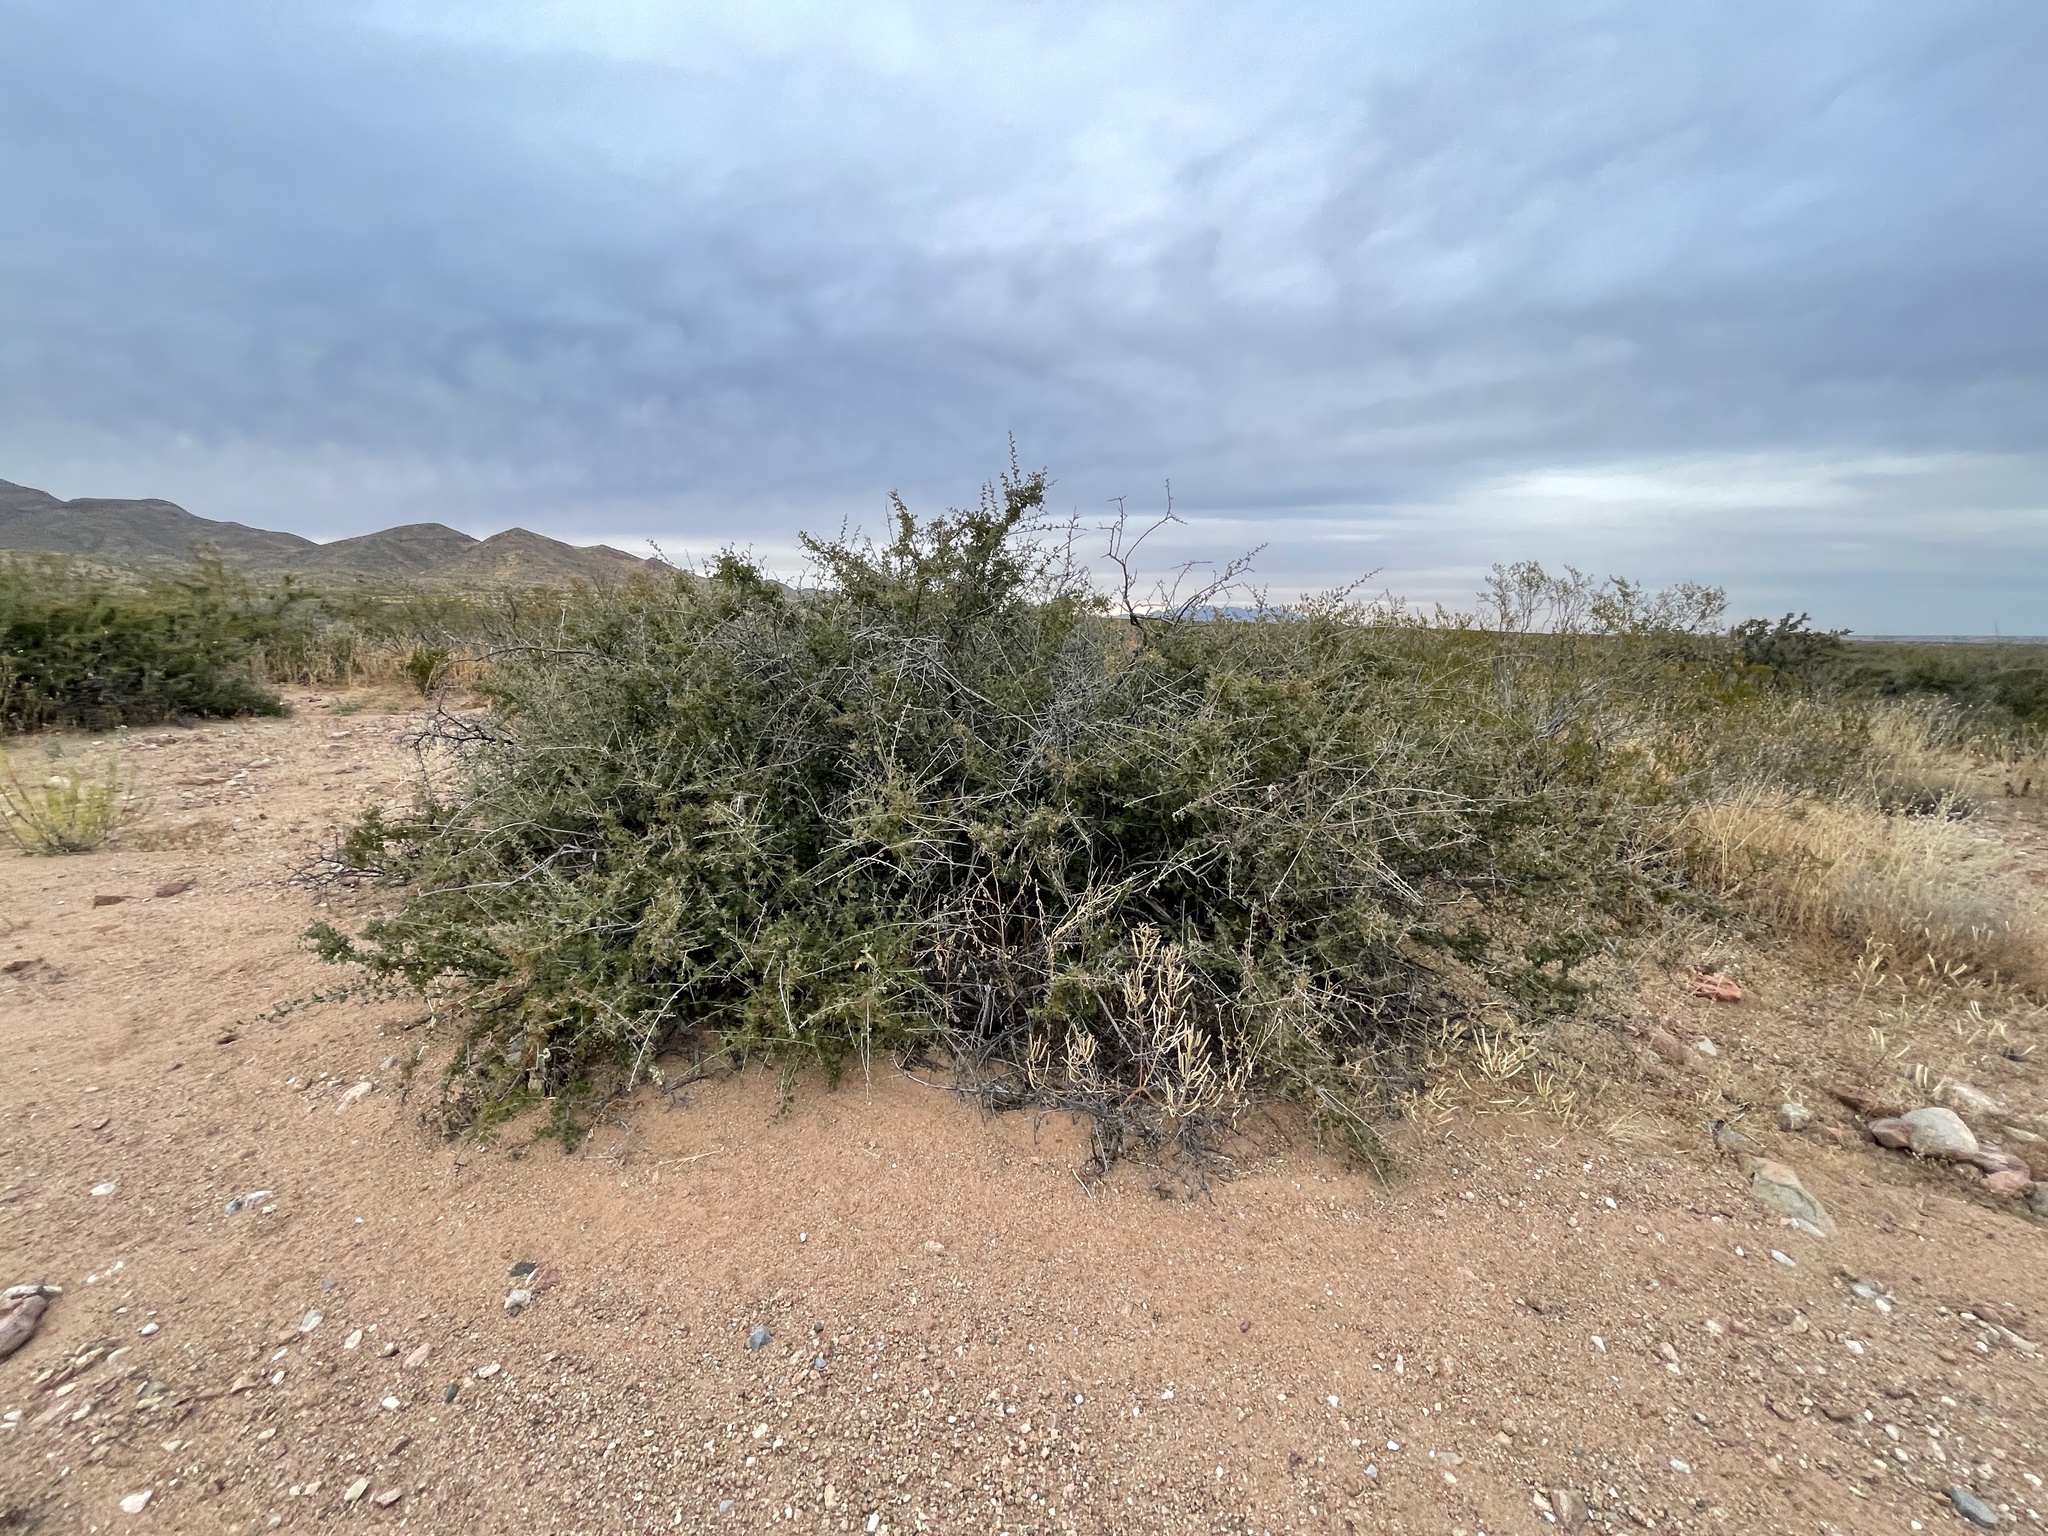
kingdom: Plantae
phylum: Tracheophyta
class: Magnoliopsida
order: Sapindales
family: Anacardiaceae
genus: Rhus
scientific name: Rhus microphylla
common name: Desert sumac
